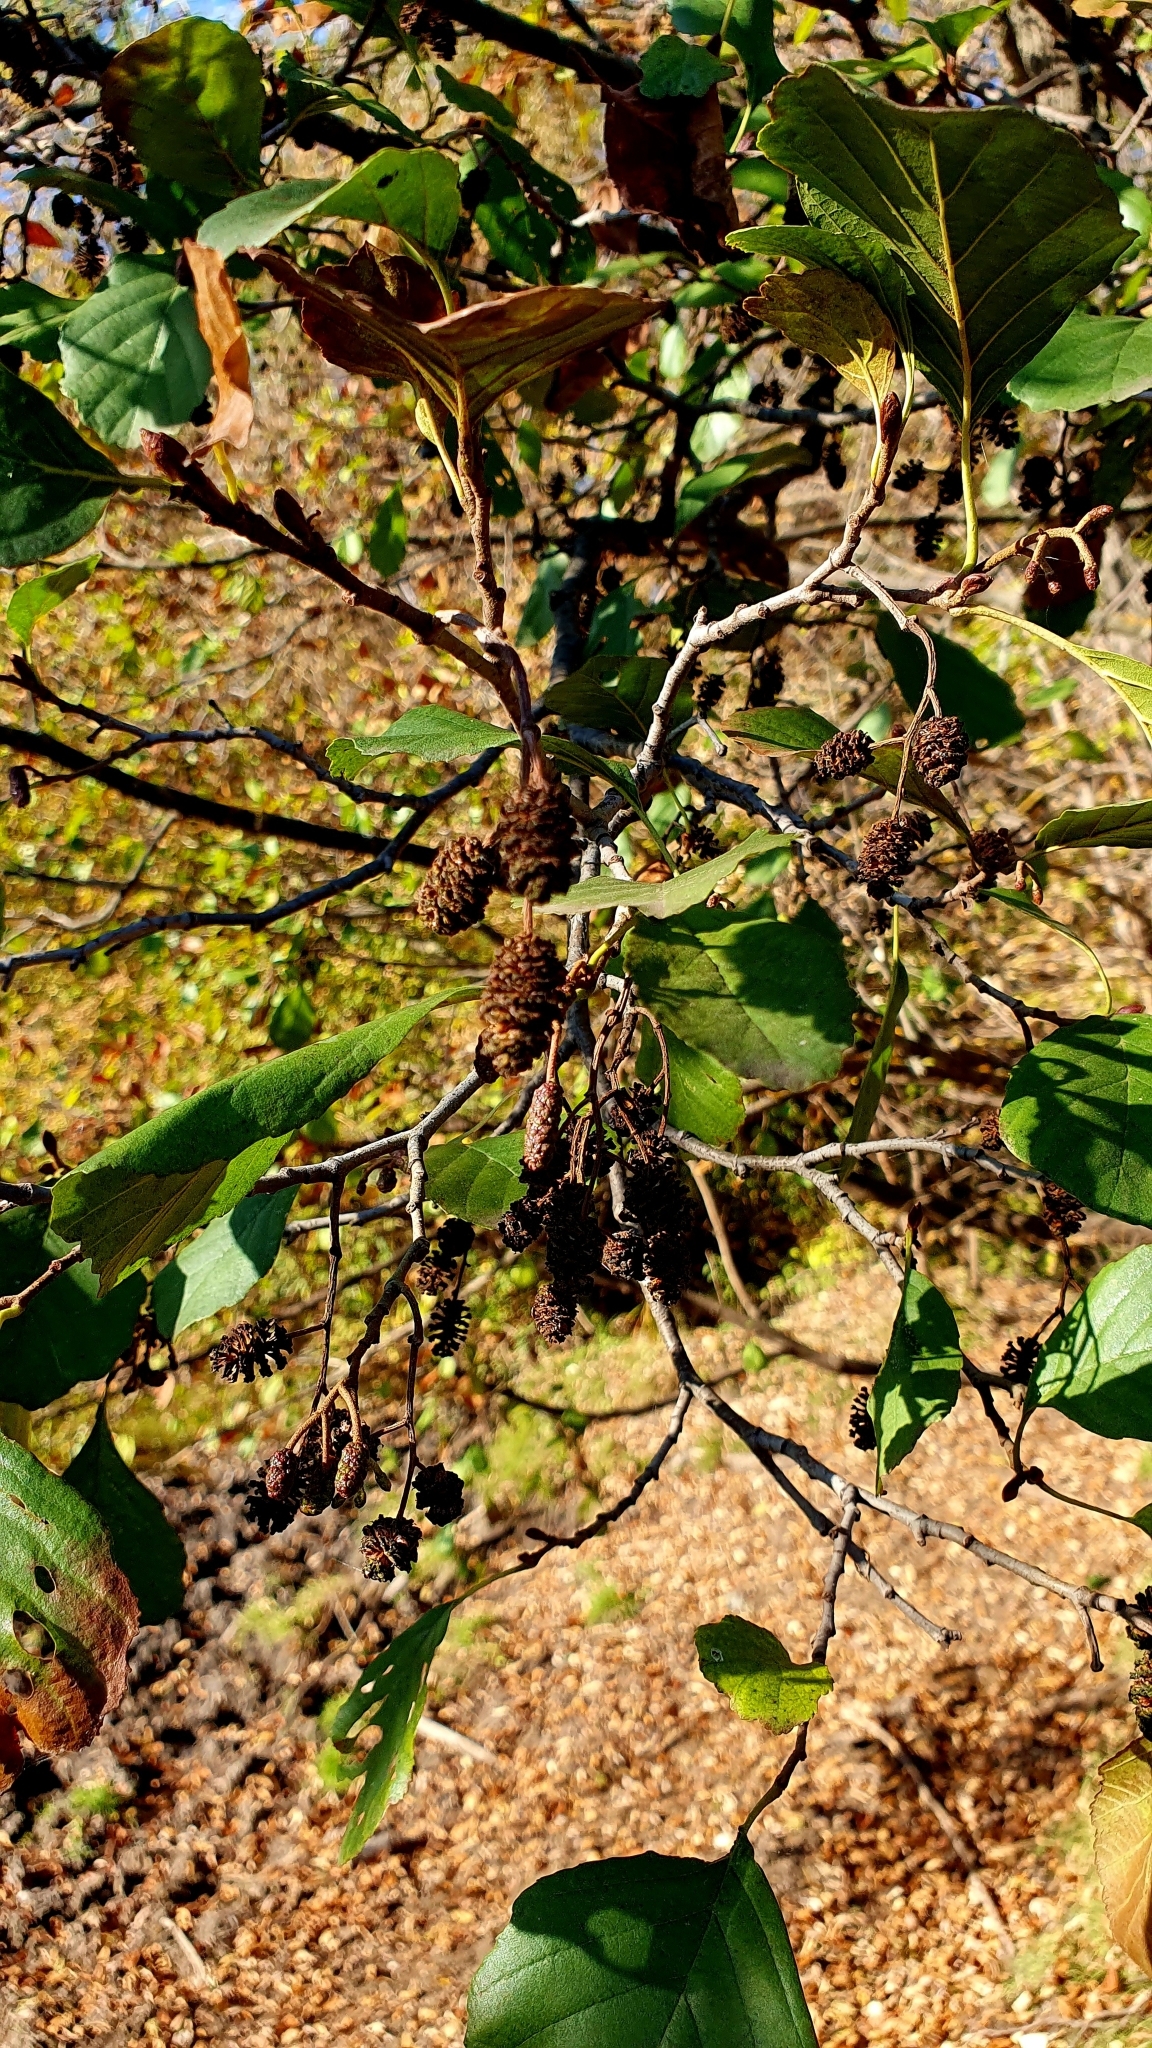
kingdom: Plantae
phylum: Tracheophyta
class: Magnoliopsida
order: Fagales
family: Betulaceae
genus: Alnus
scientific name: Alnus glutinosa
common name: Black alder
